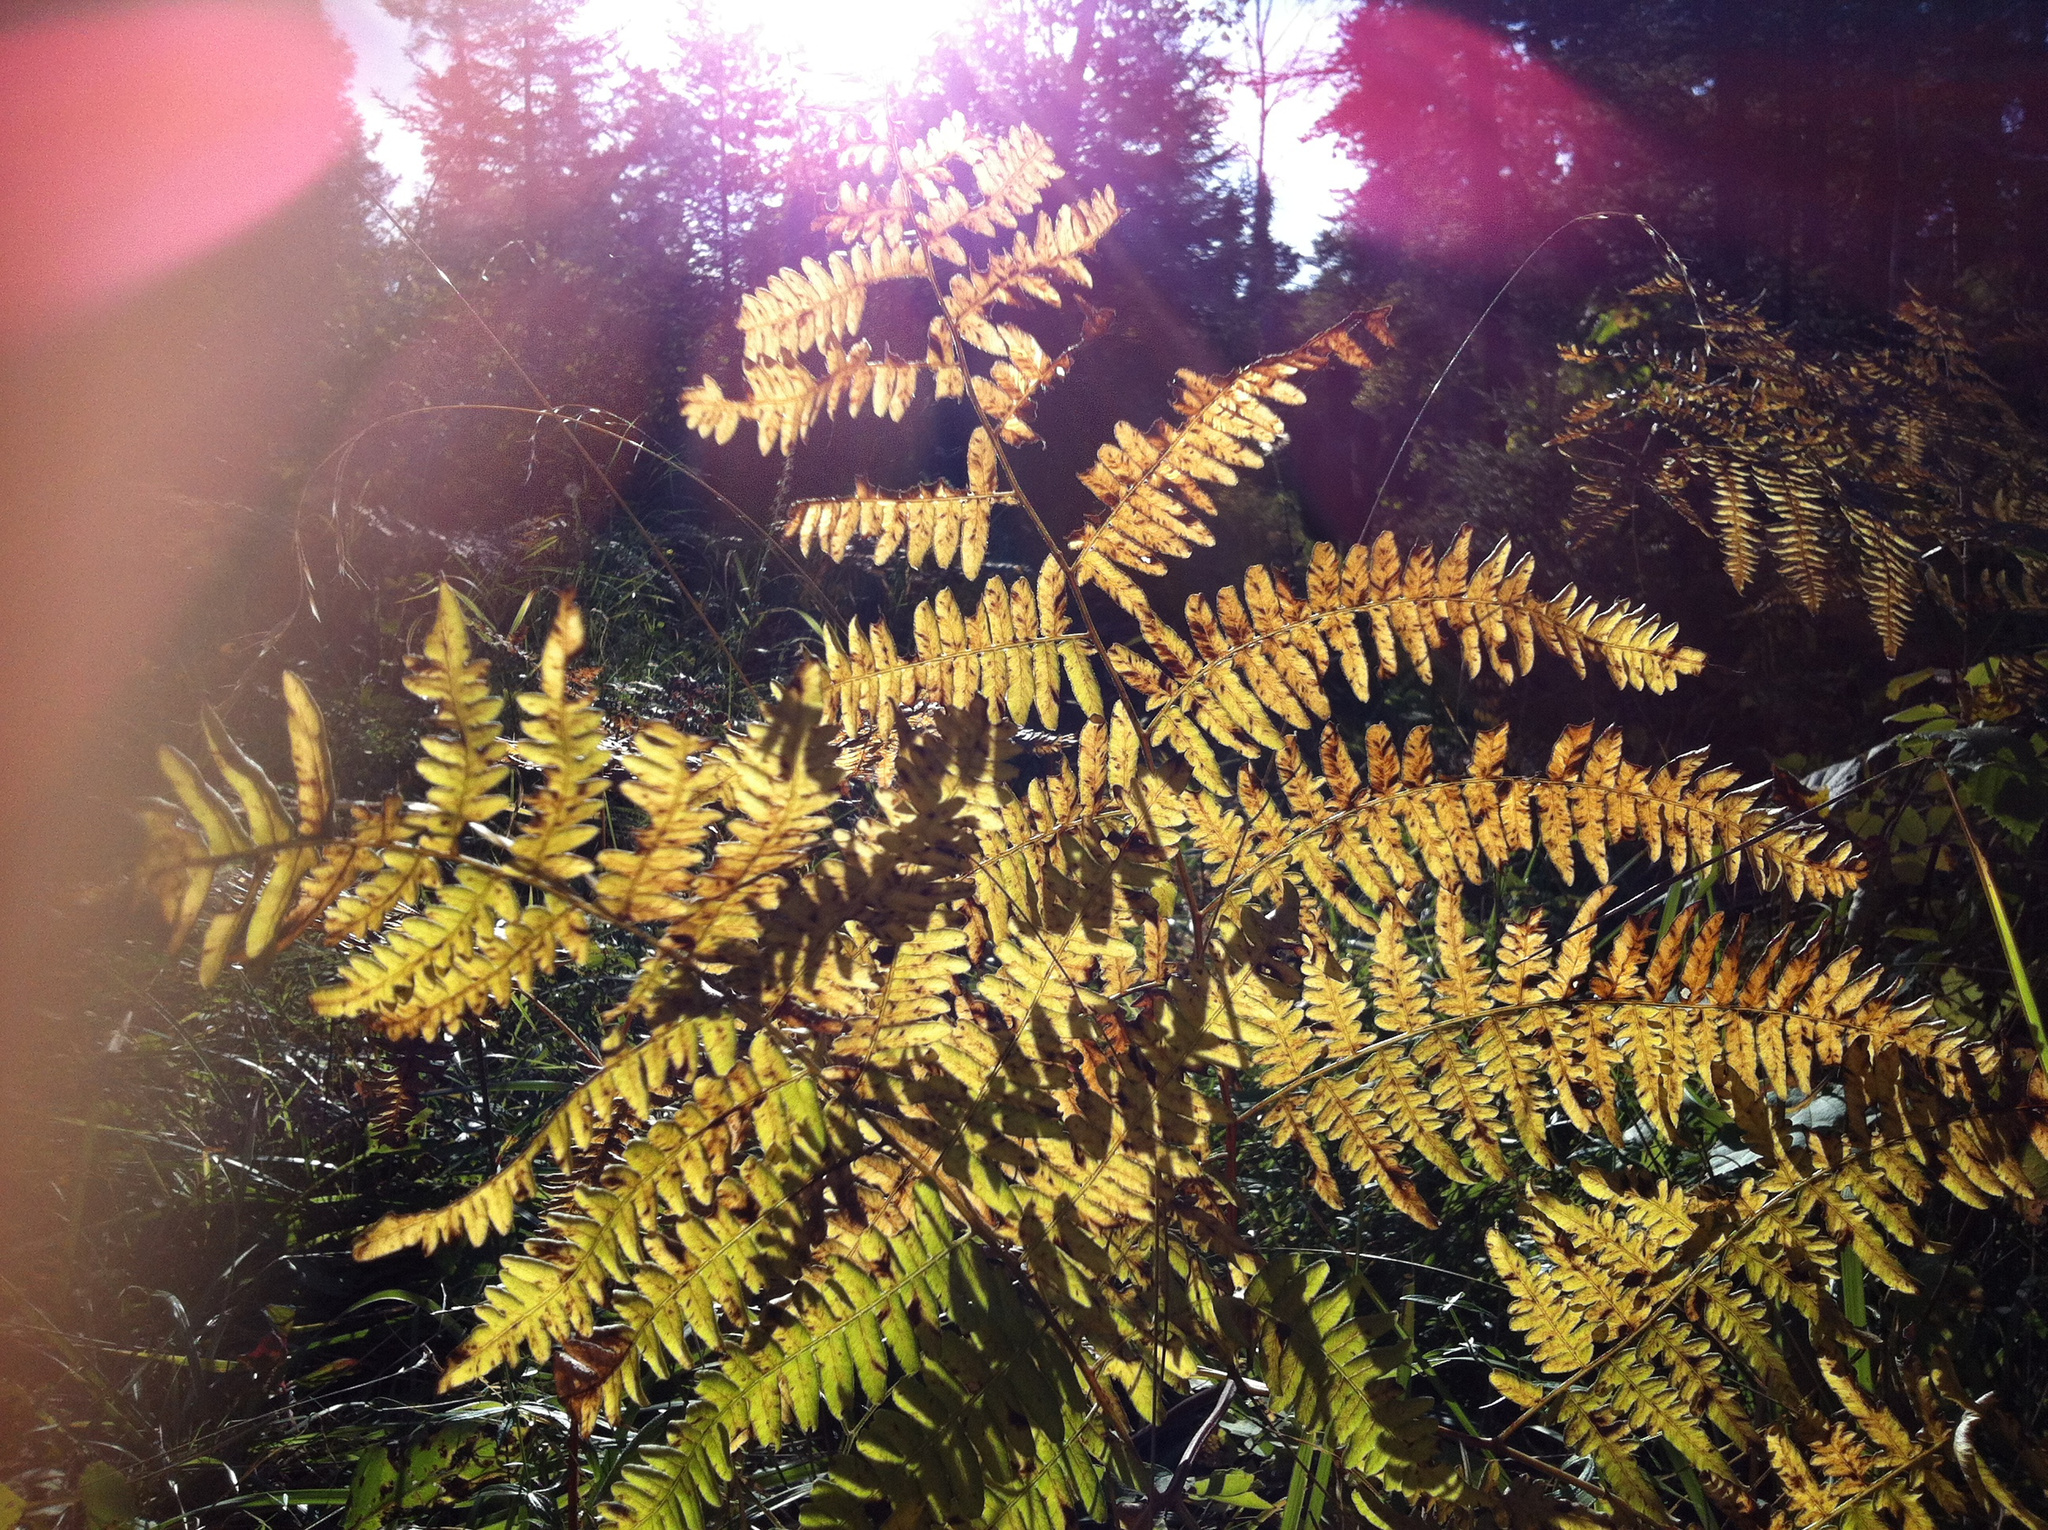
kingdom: Plantae
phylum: Tracheophyta
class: Polypodiopsida
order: Polypodiales
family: Dennstaedtiaceae
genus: Pteridium
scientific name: Pteridium aquilinum
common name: Bracken
